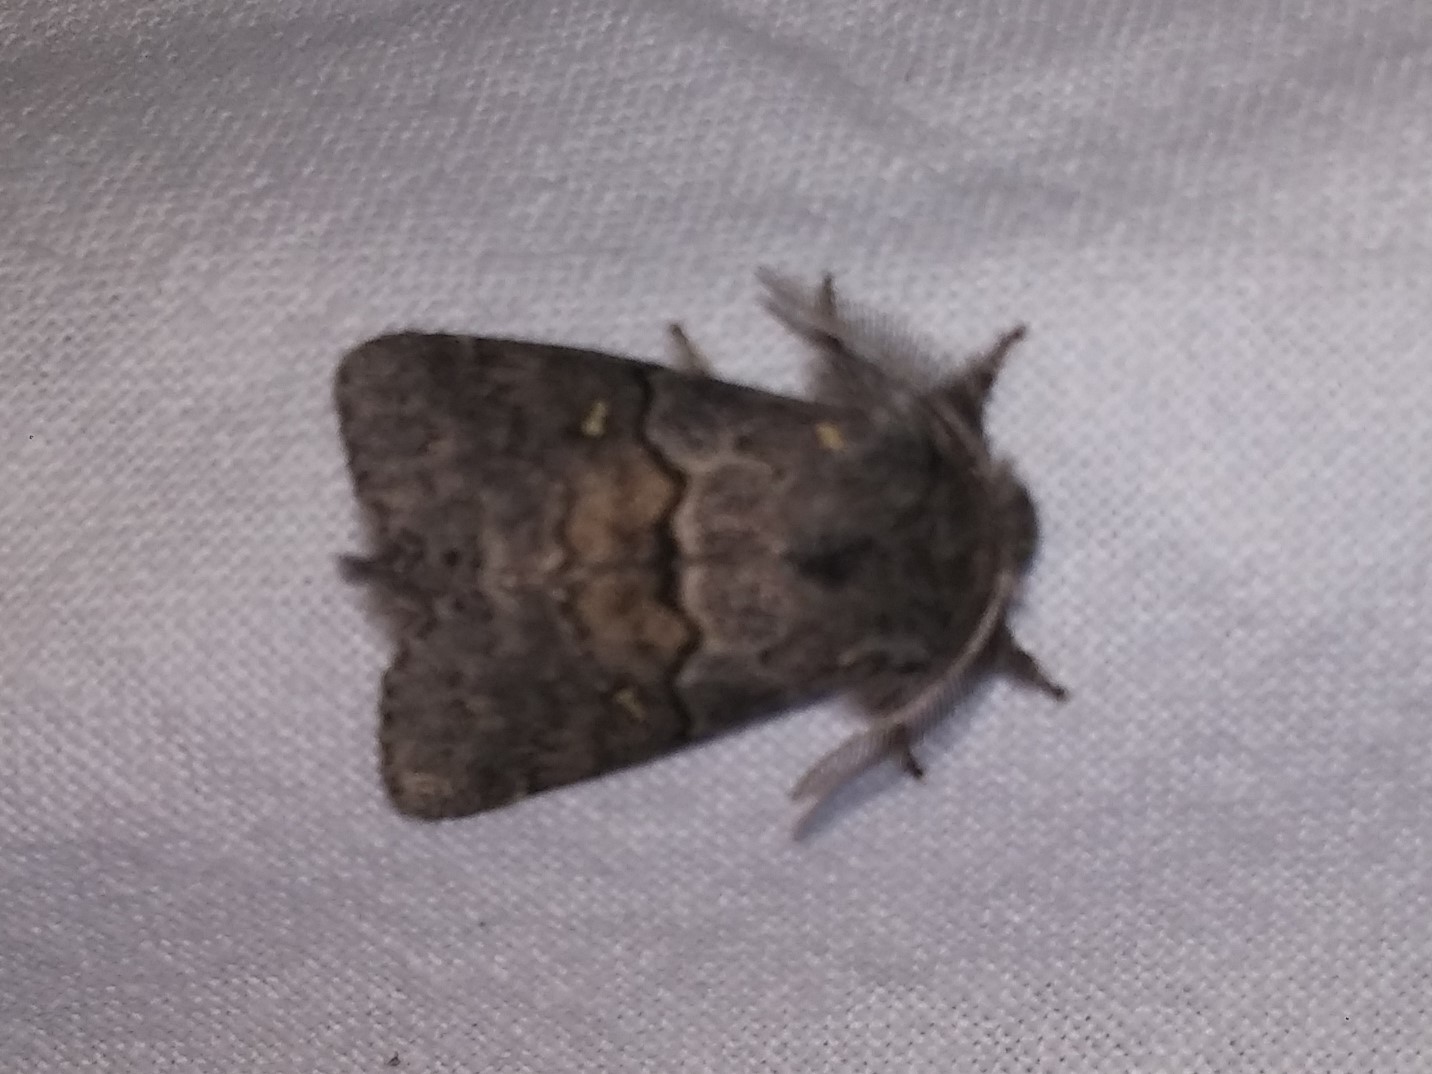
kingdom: Animalia
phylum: Arthropoda
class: Insecta
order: Lepidoptera
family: Notodontidae
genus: Gluphisia
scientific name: Gluphisia avimacula
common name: Four-spotted gluphisia moth
